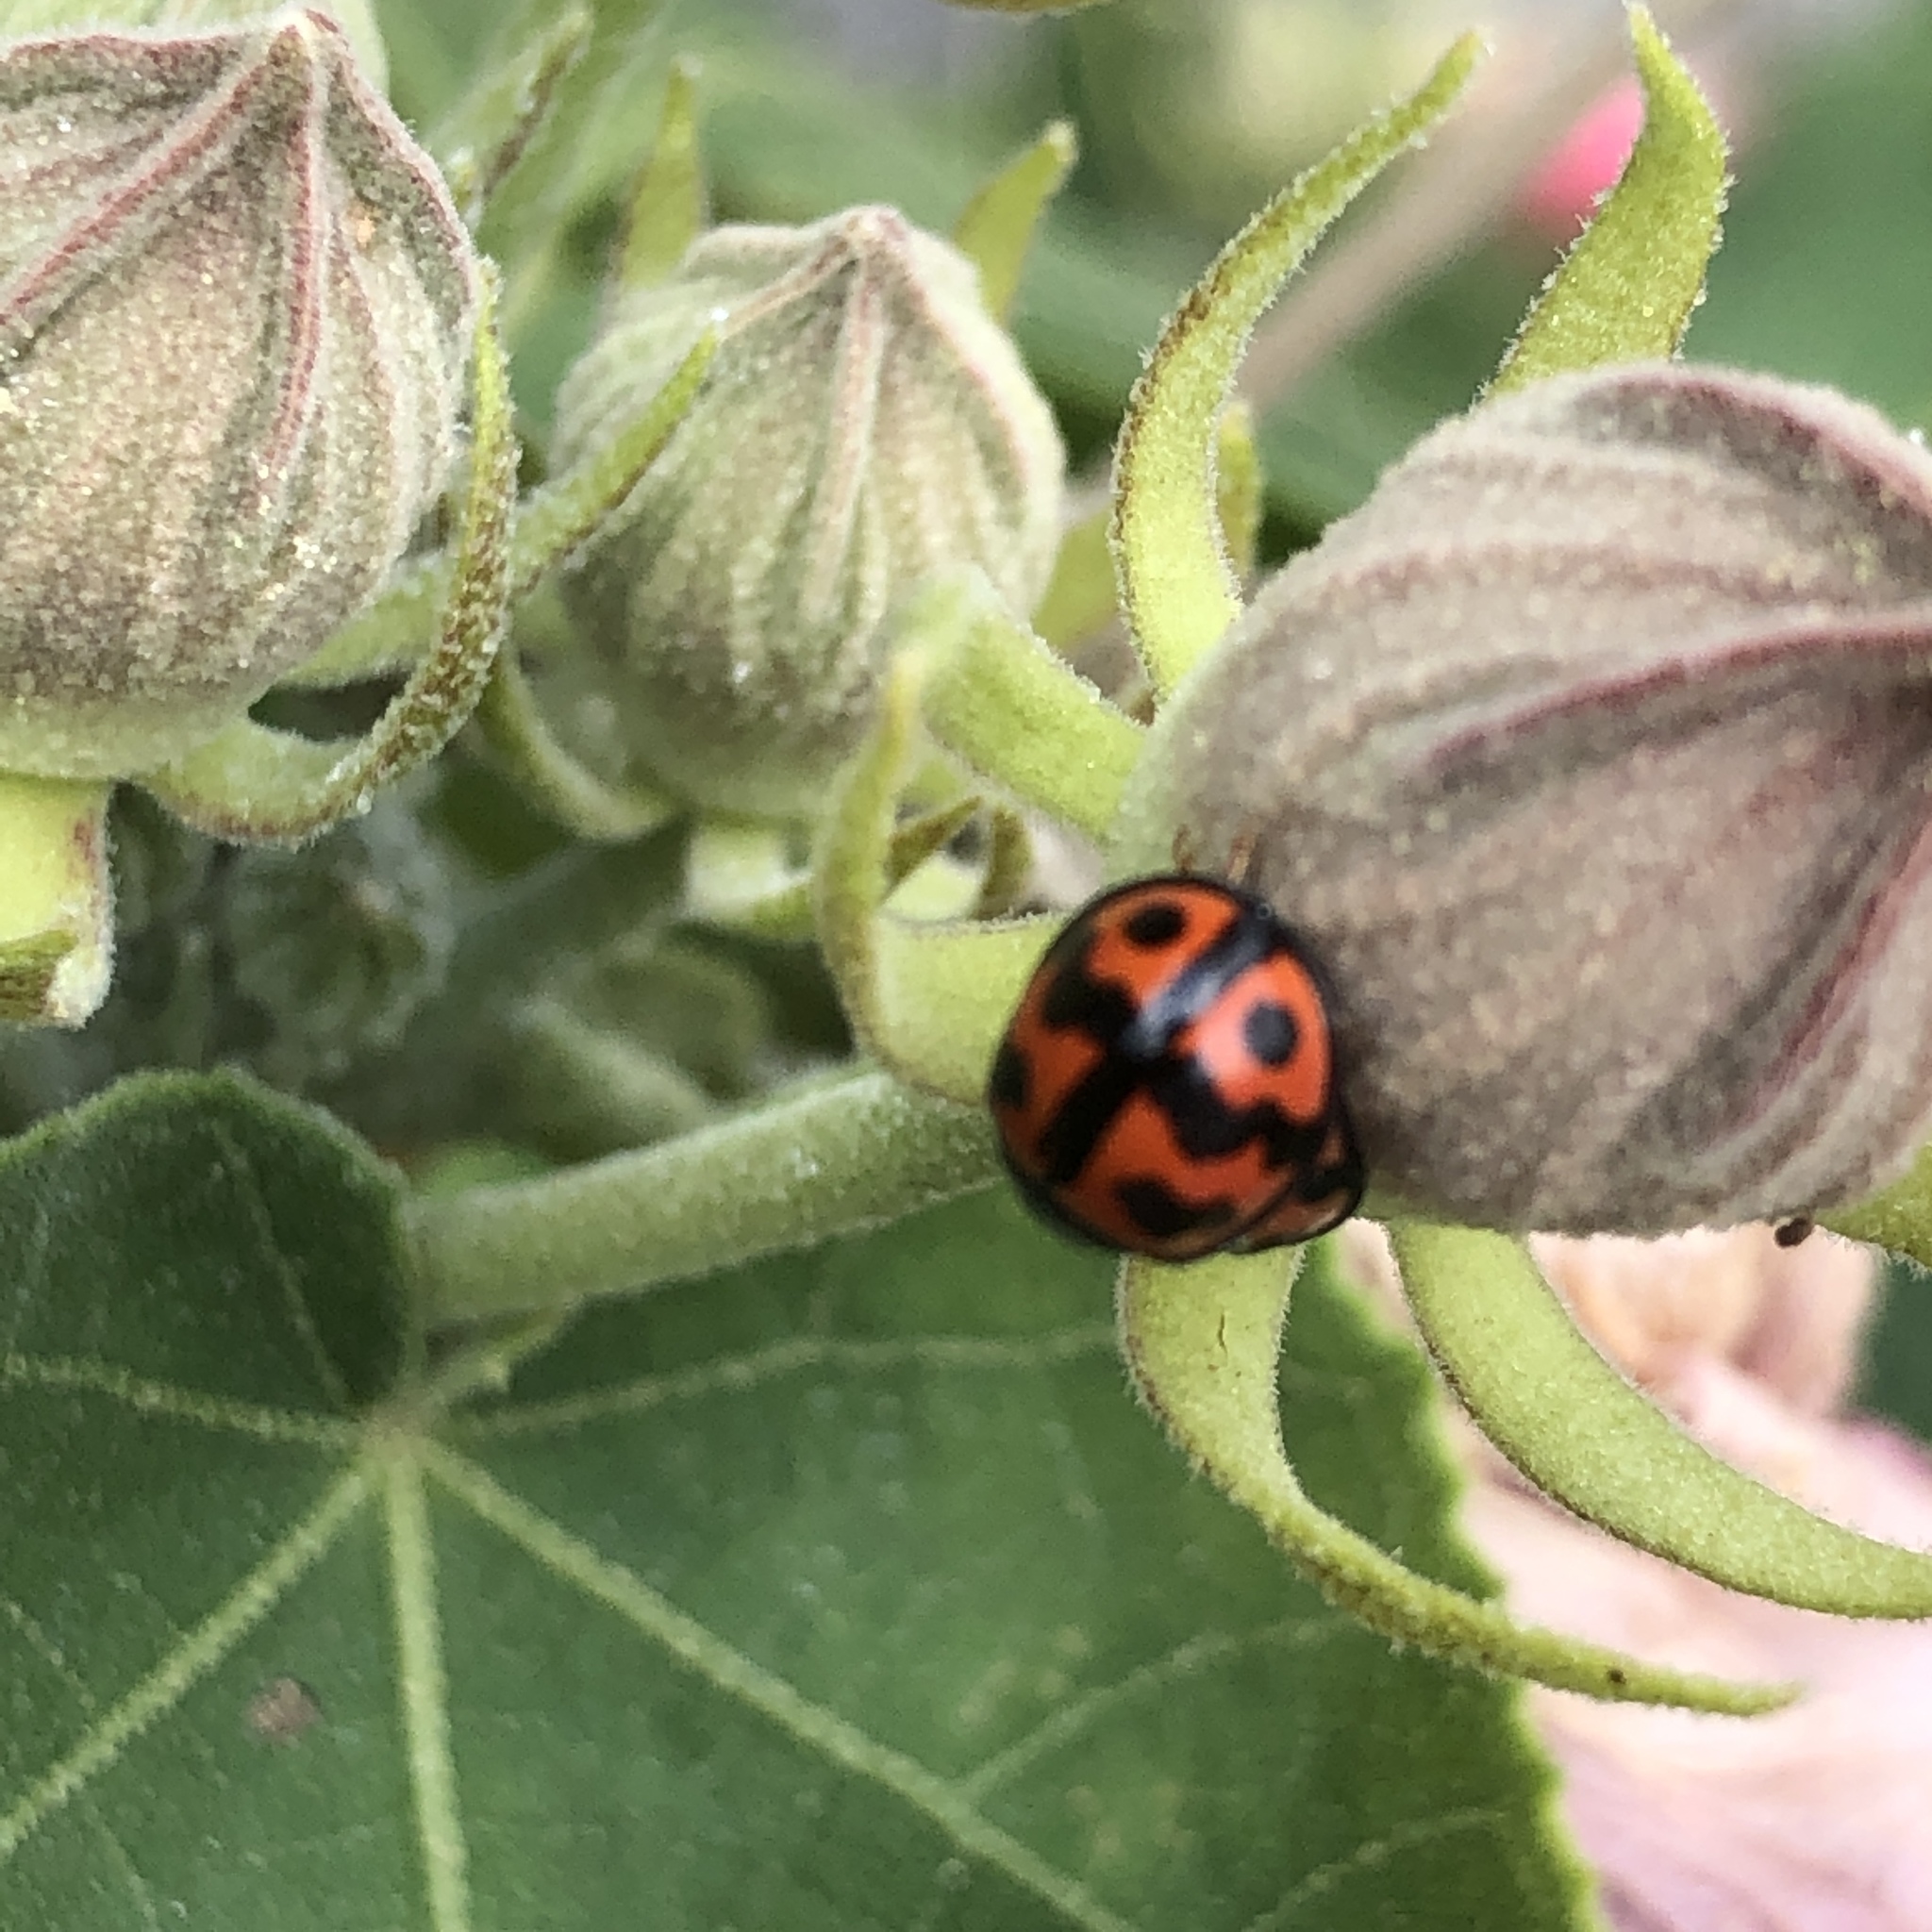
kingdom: Animalia
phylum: Arthropoda
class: Insecta
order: Coleoptera
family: Coccinellidae
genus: Cheilomenes
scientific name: Cheilomenes sexmaculata
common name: Ladybird beetle
